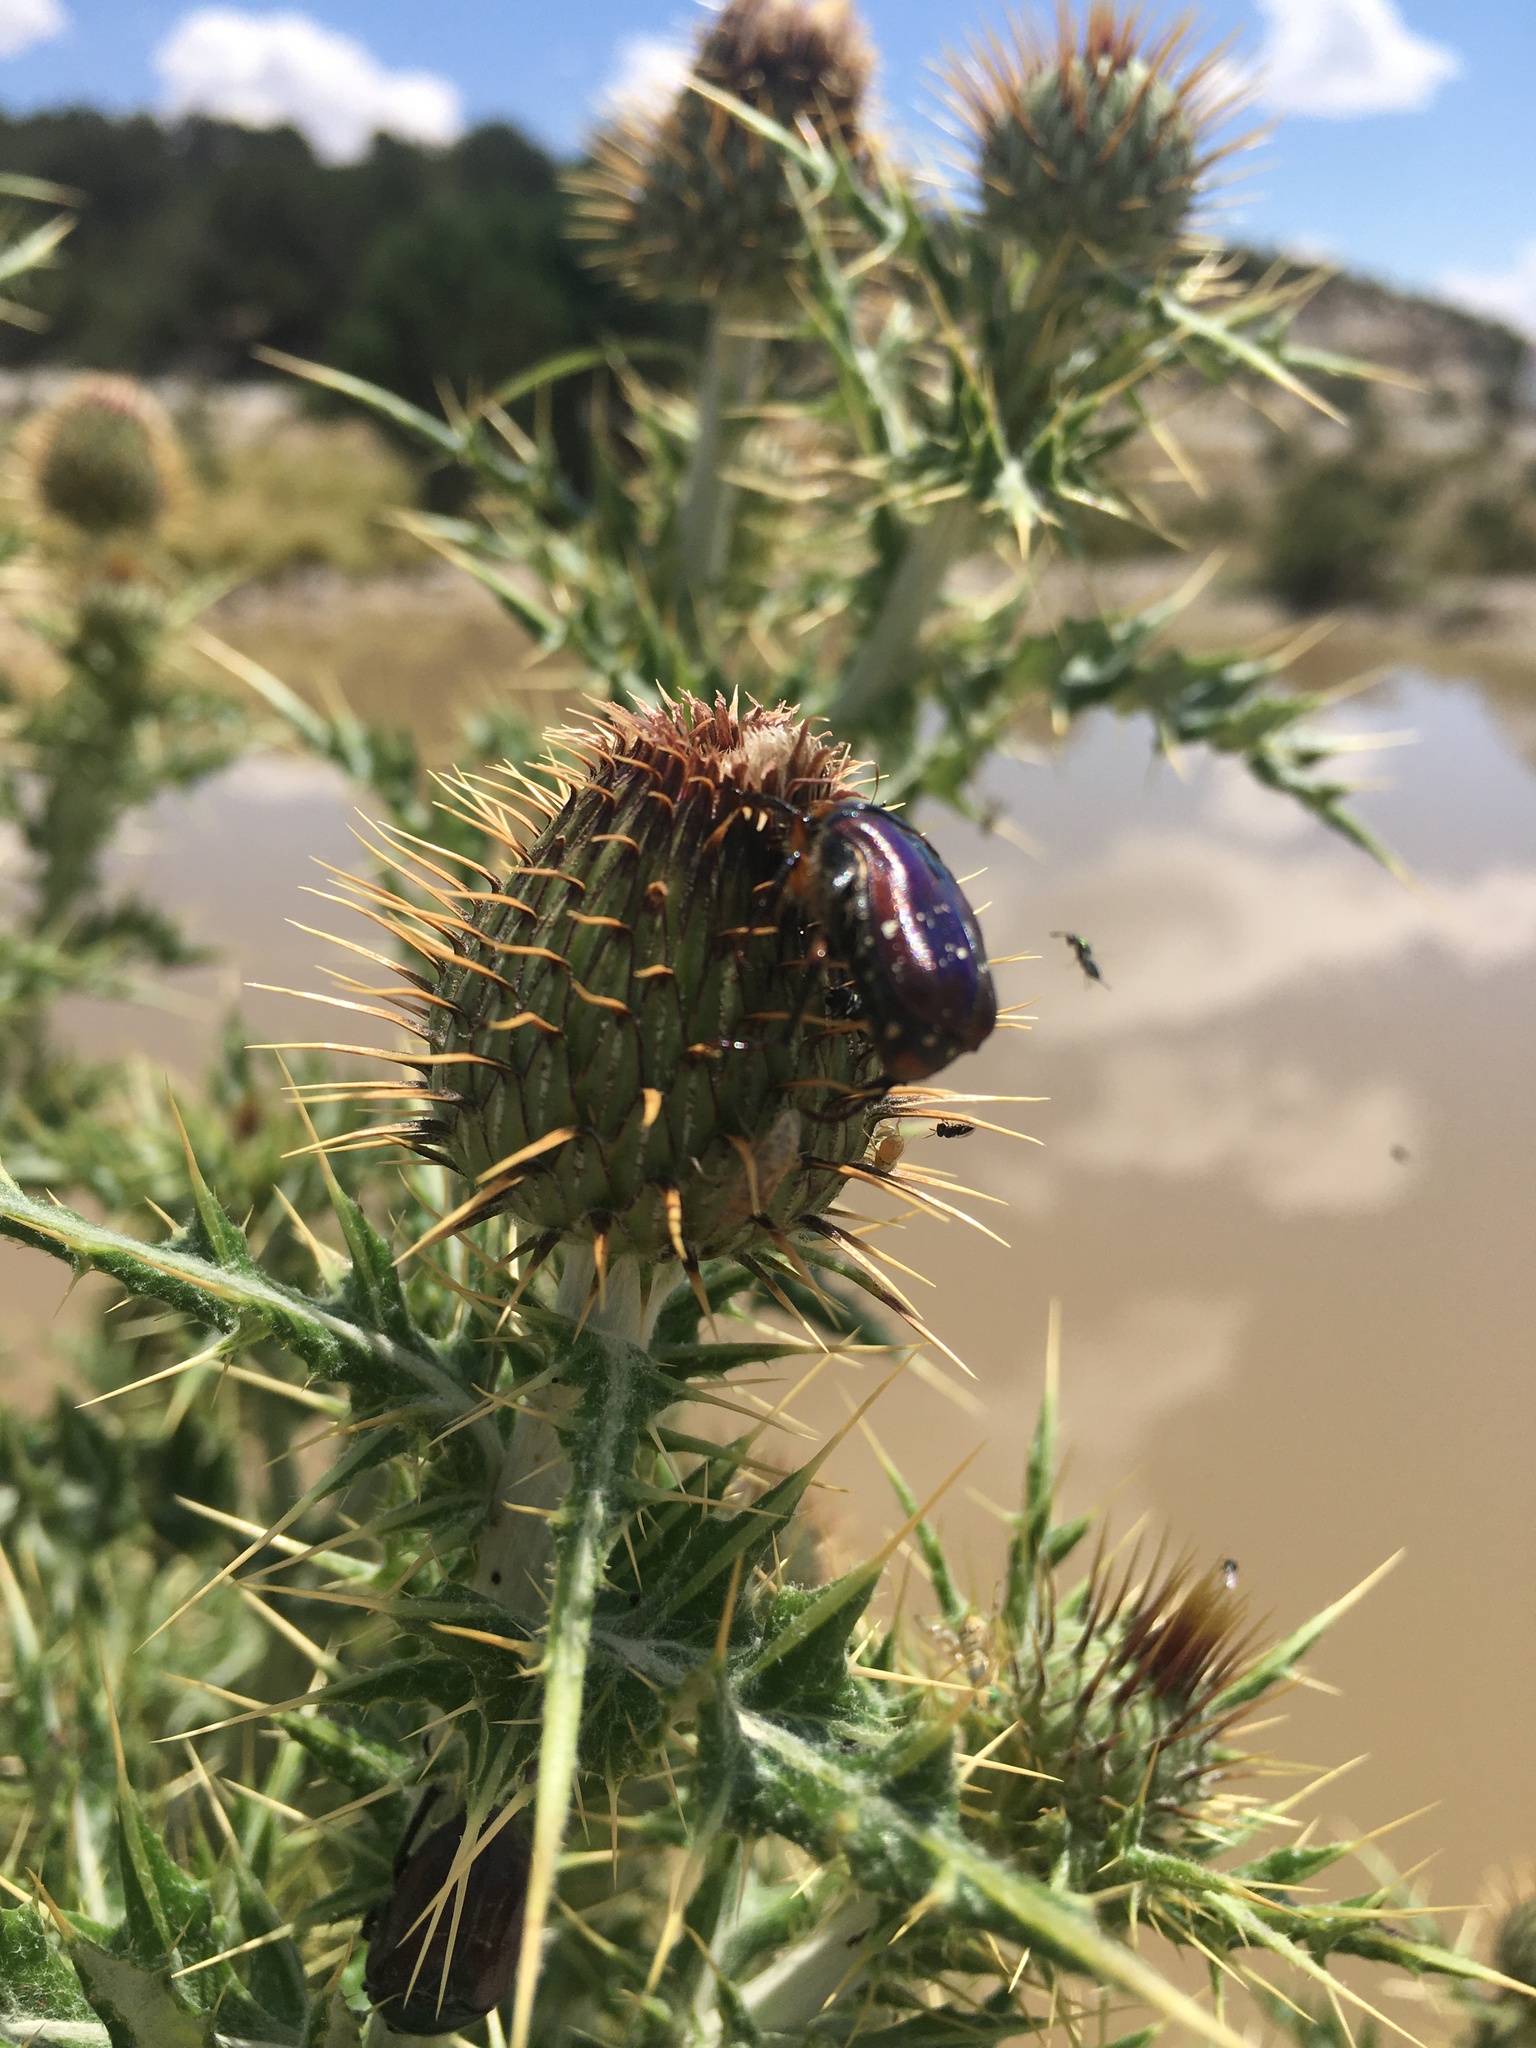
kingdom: Animalia
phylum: Arthropoda
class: Insecta
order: Coleoptera
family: Scarabaeidae
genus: Euphoria
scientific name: Euphoria fulgida
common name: Emerald euphoria
